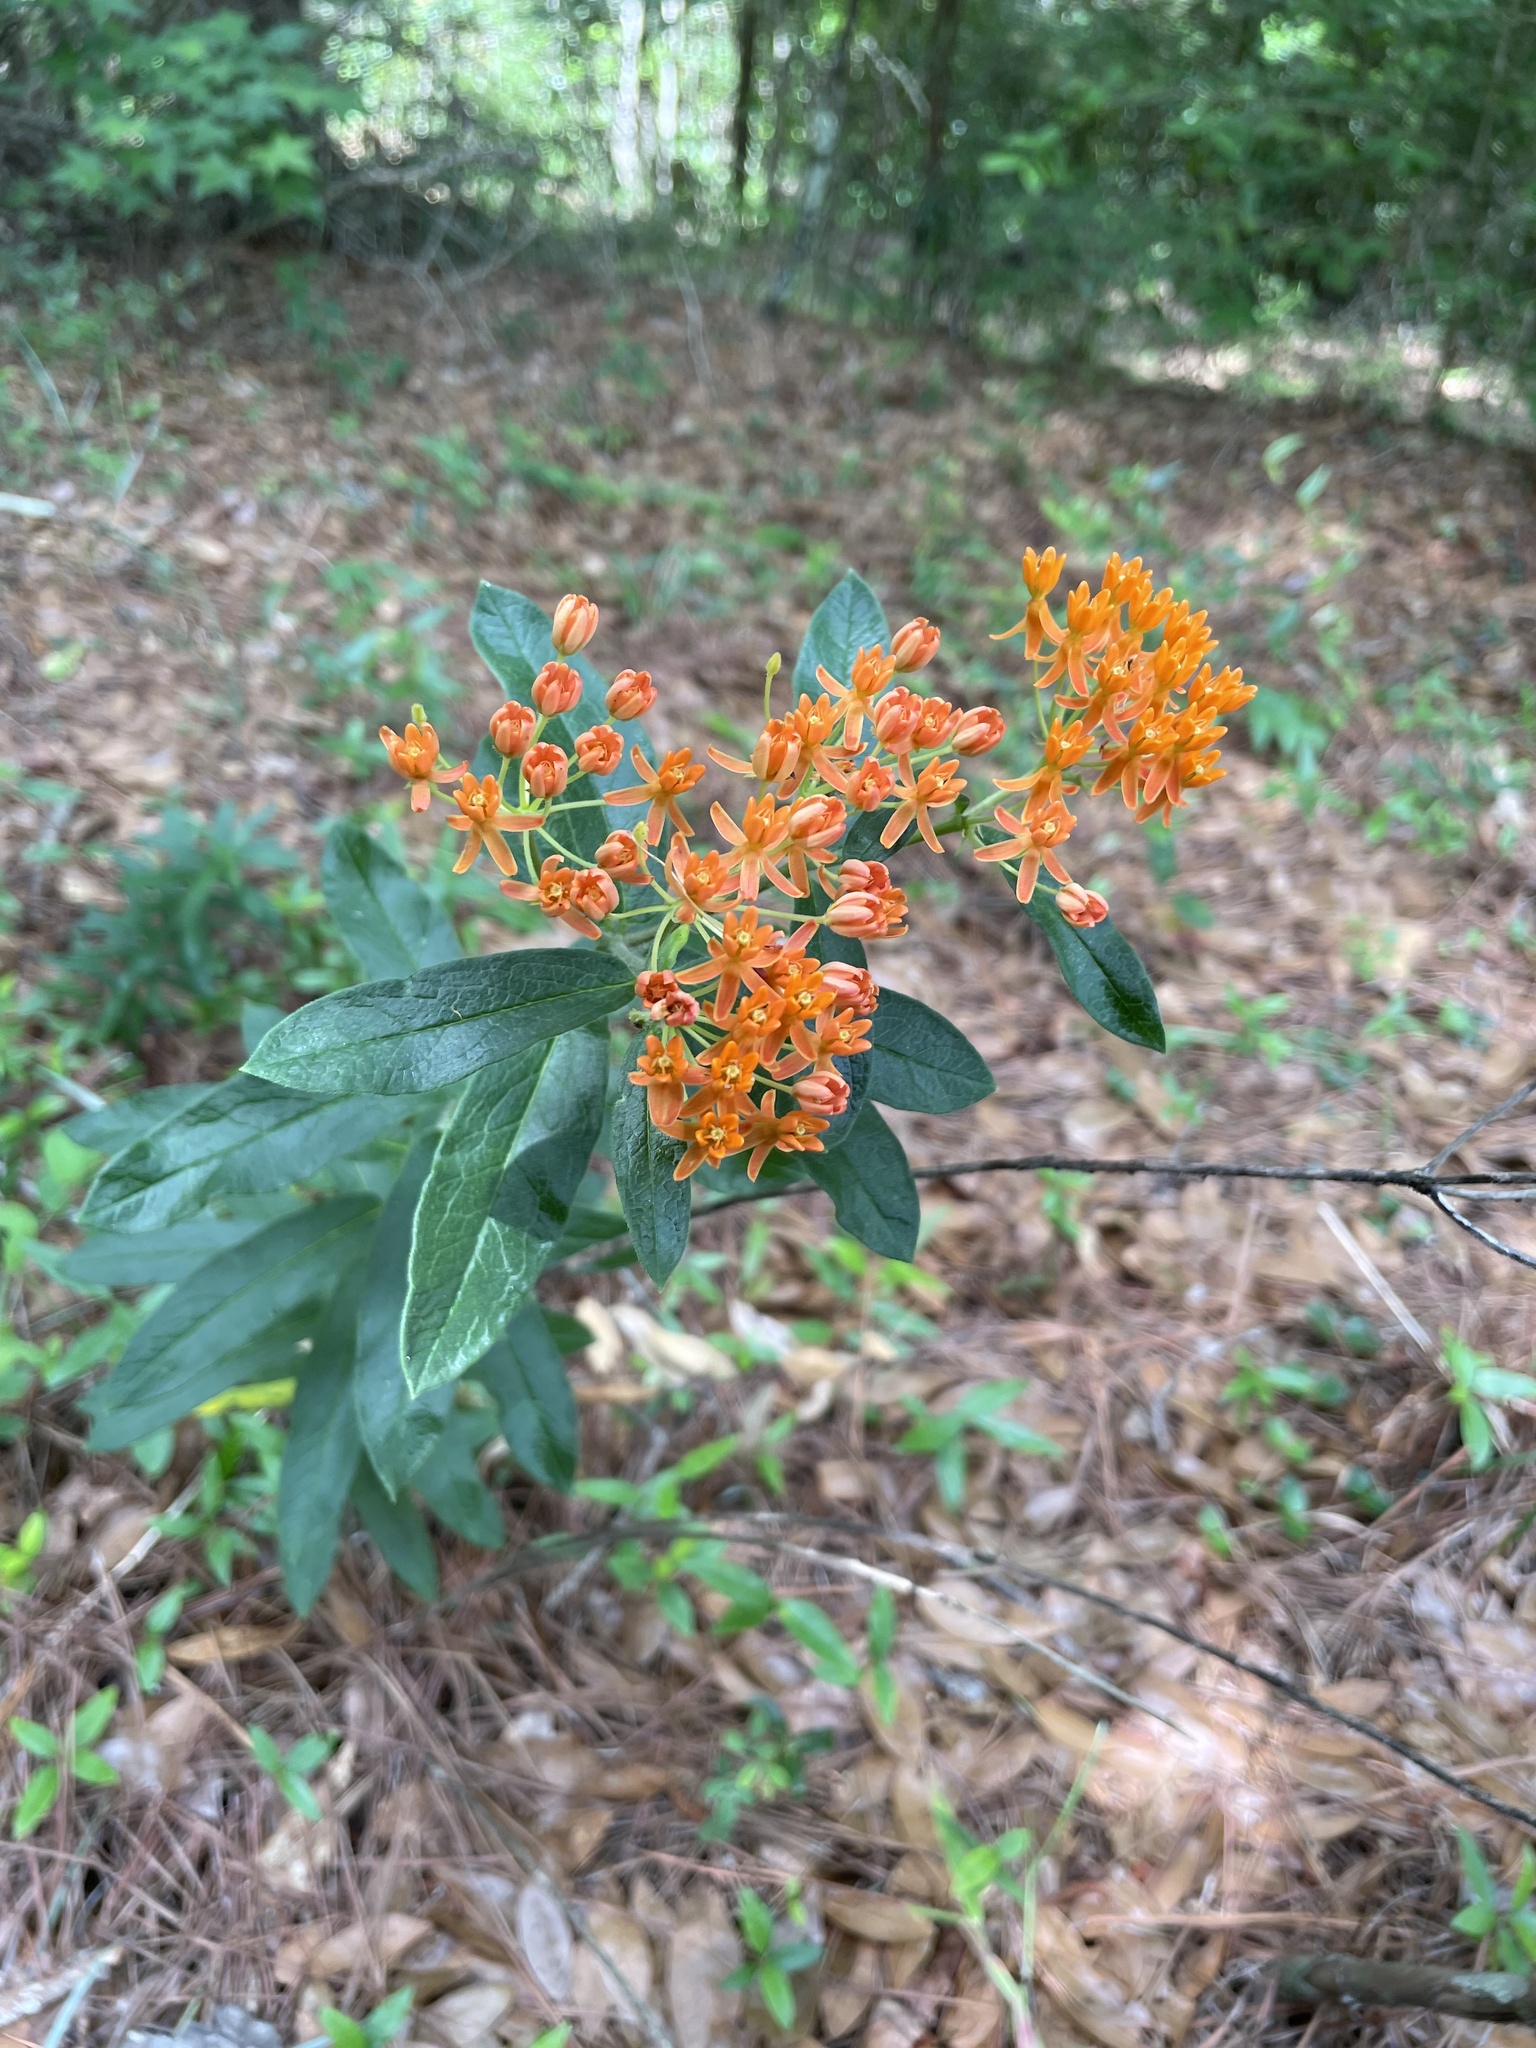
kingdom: Plantae
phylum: Tracheophyta
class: Magnoliopsida
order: Gentianales
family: Apocynaceae
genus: Asclepias
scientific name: Asclepias tuberosa
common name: Butterfly milkweed
